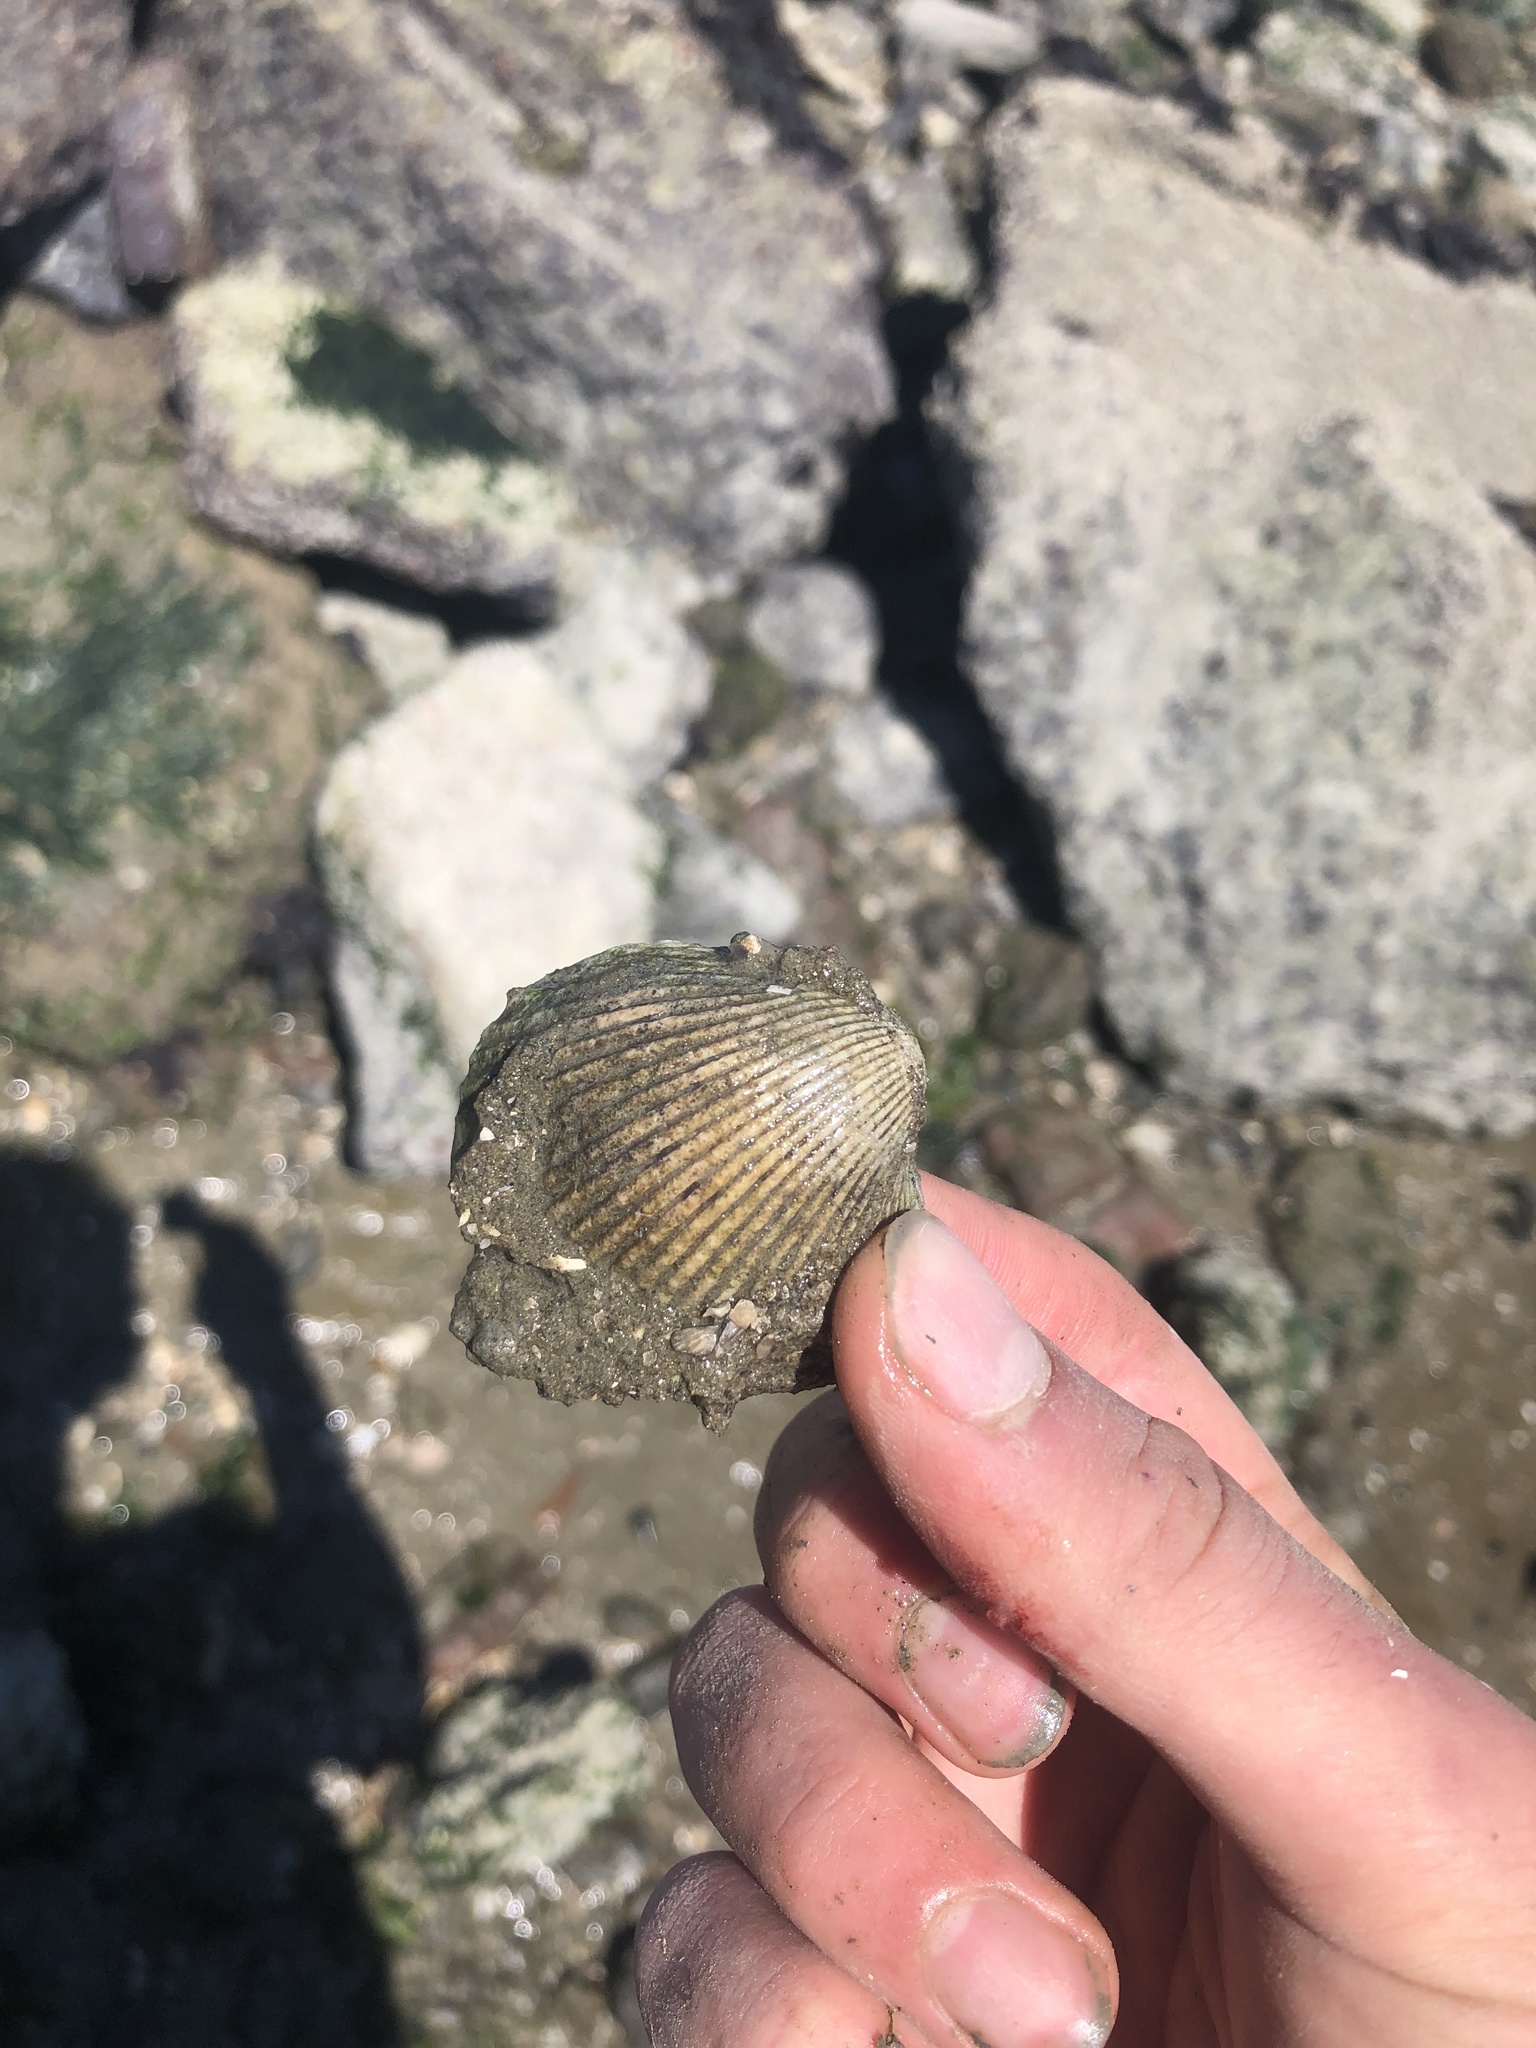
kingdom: Animalia
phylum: Mollusca
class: Bivalvia
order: Cardiida
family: Cardiidae
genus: Clinocardium
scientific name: Clinocardium nuttallii
